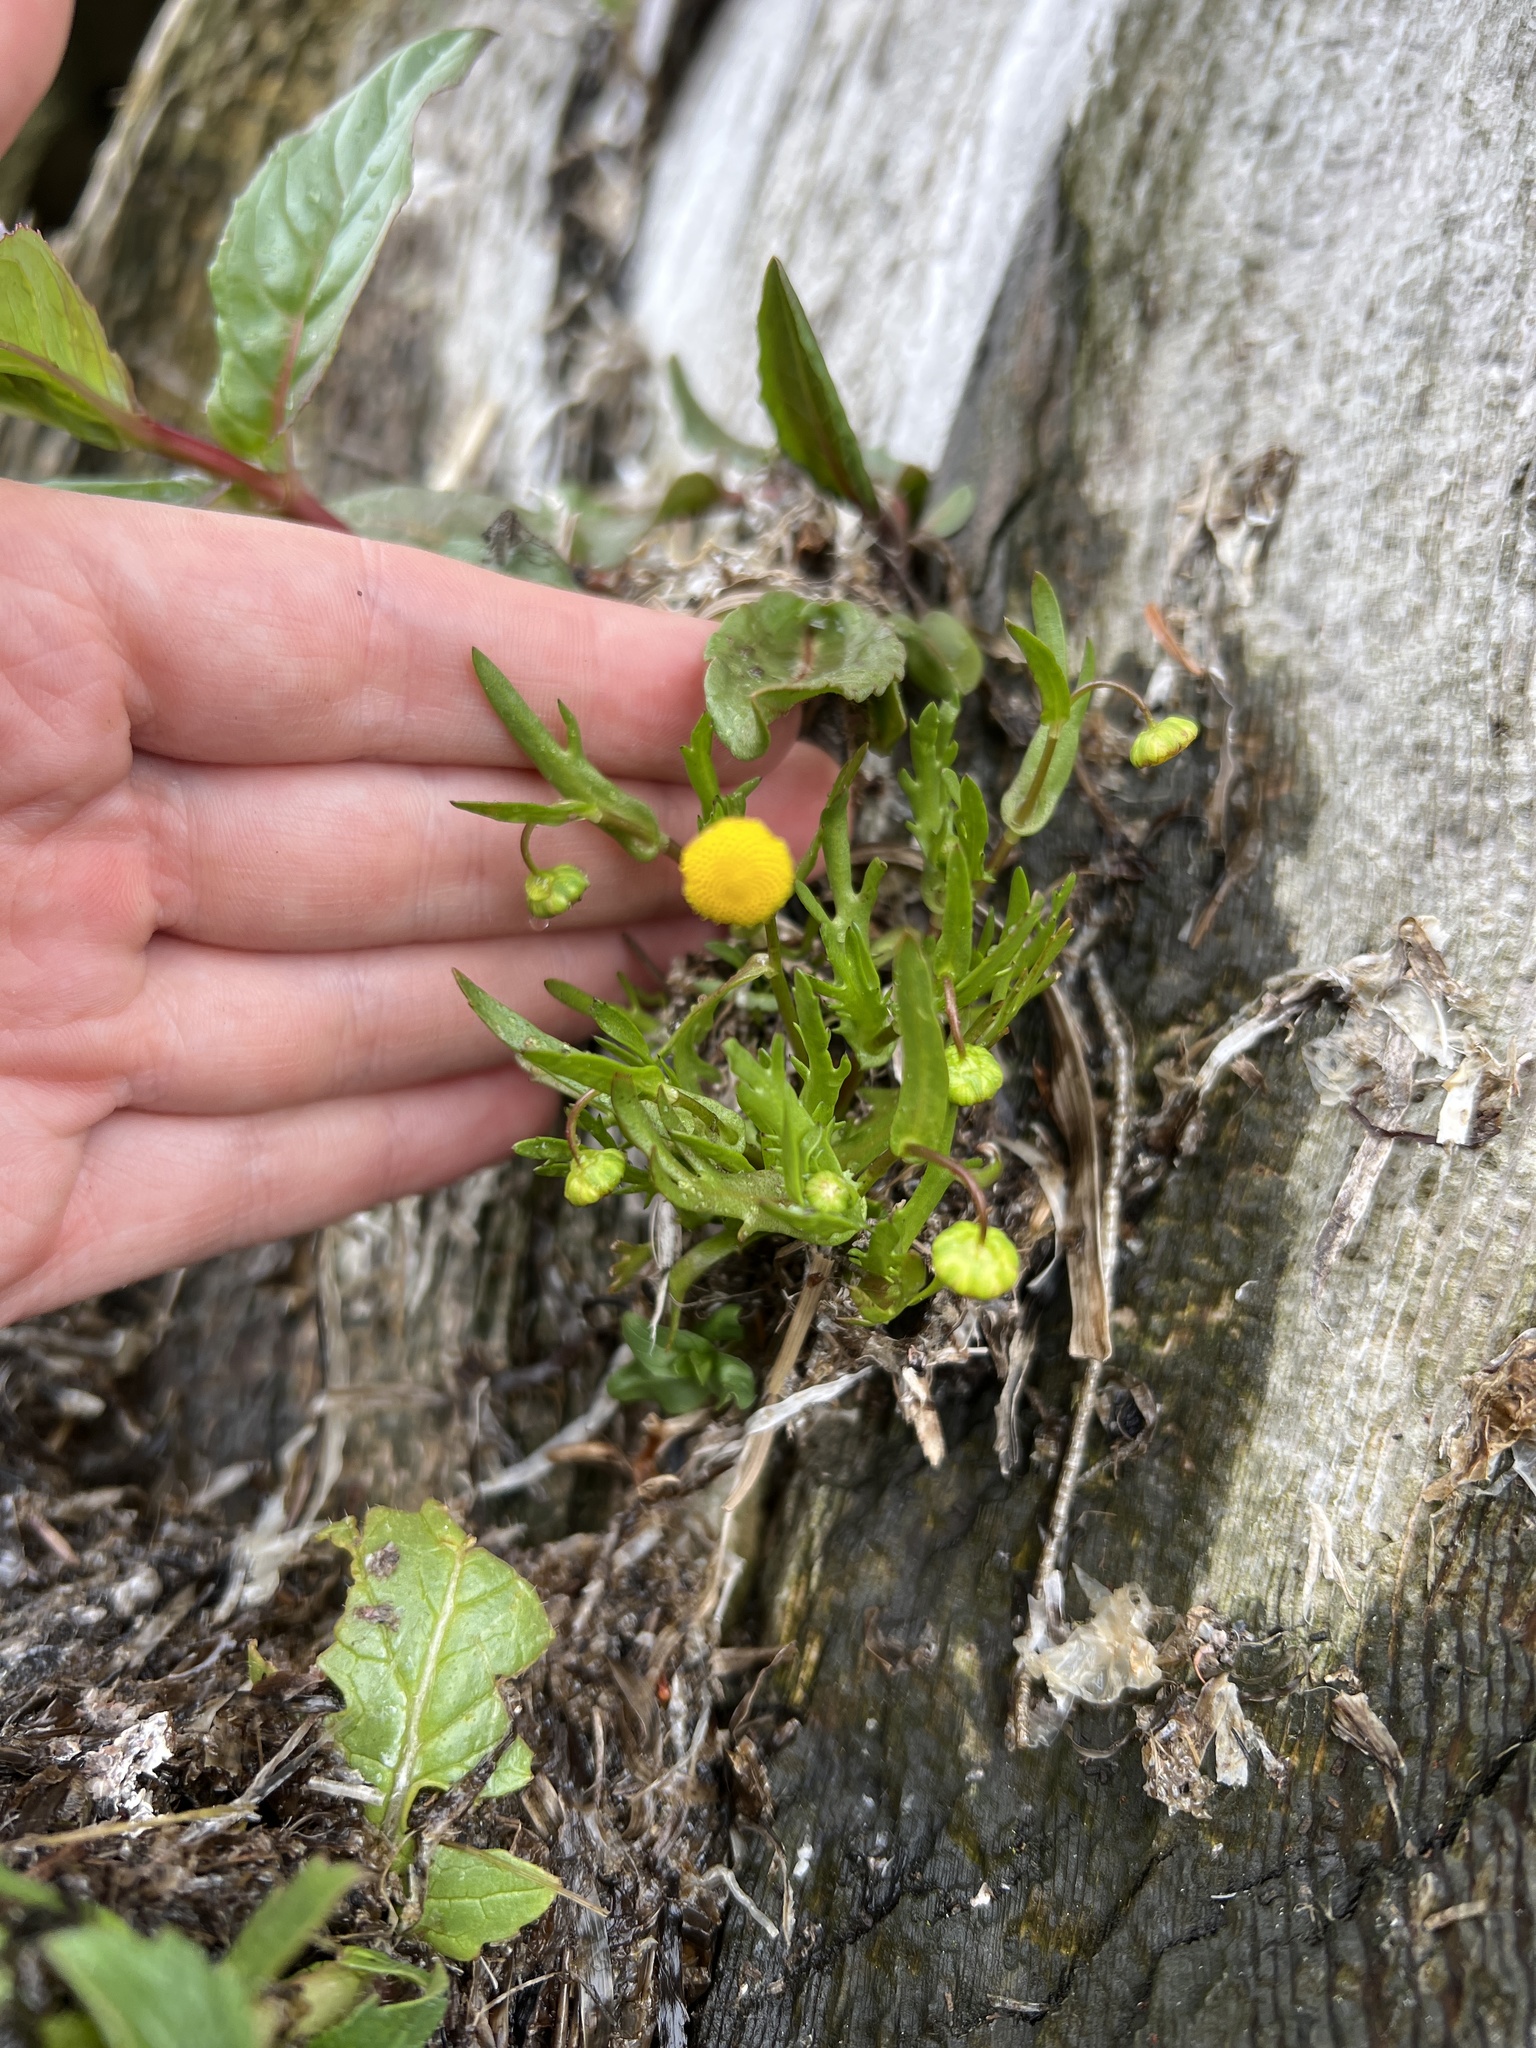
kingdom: Plantae
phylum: Tracheophyta
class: Magnoliopsida
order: Asterales
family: Asteraceae
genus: Cotula
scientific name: Cotula coronopifolia
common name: Buttonweed
